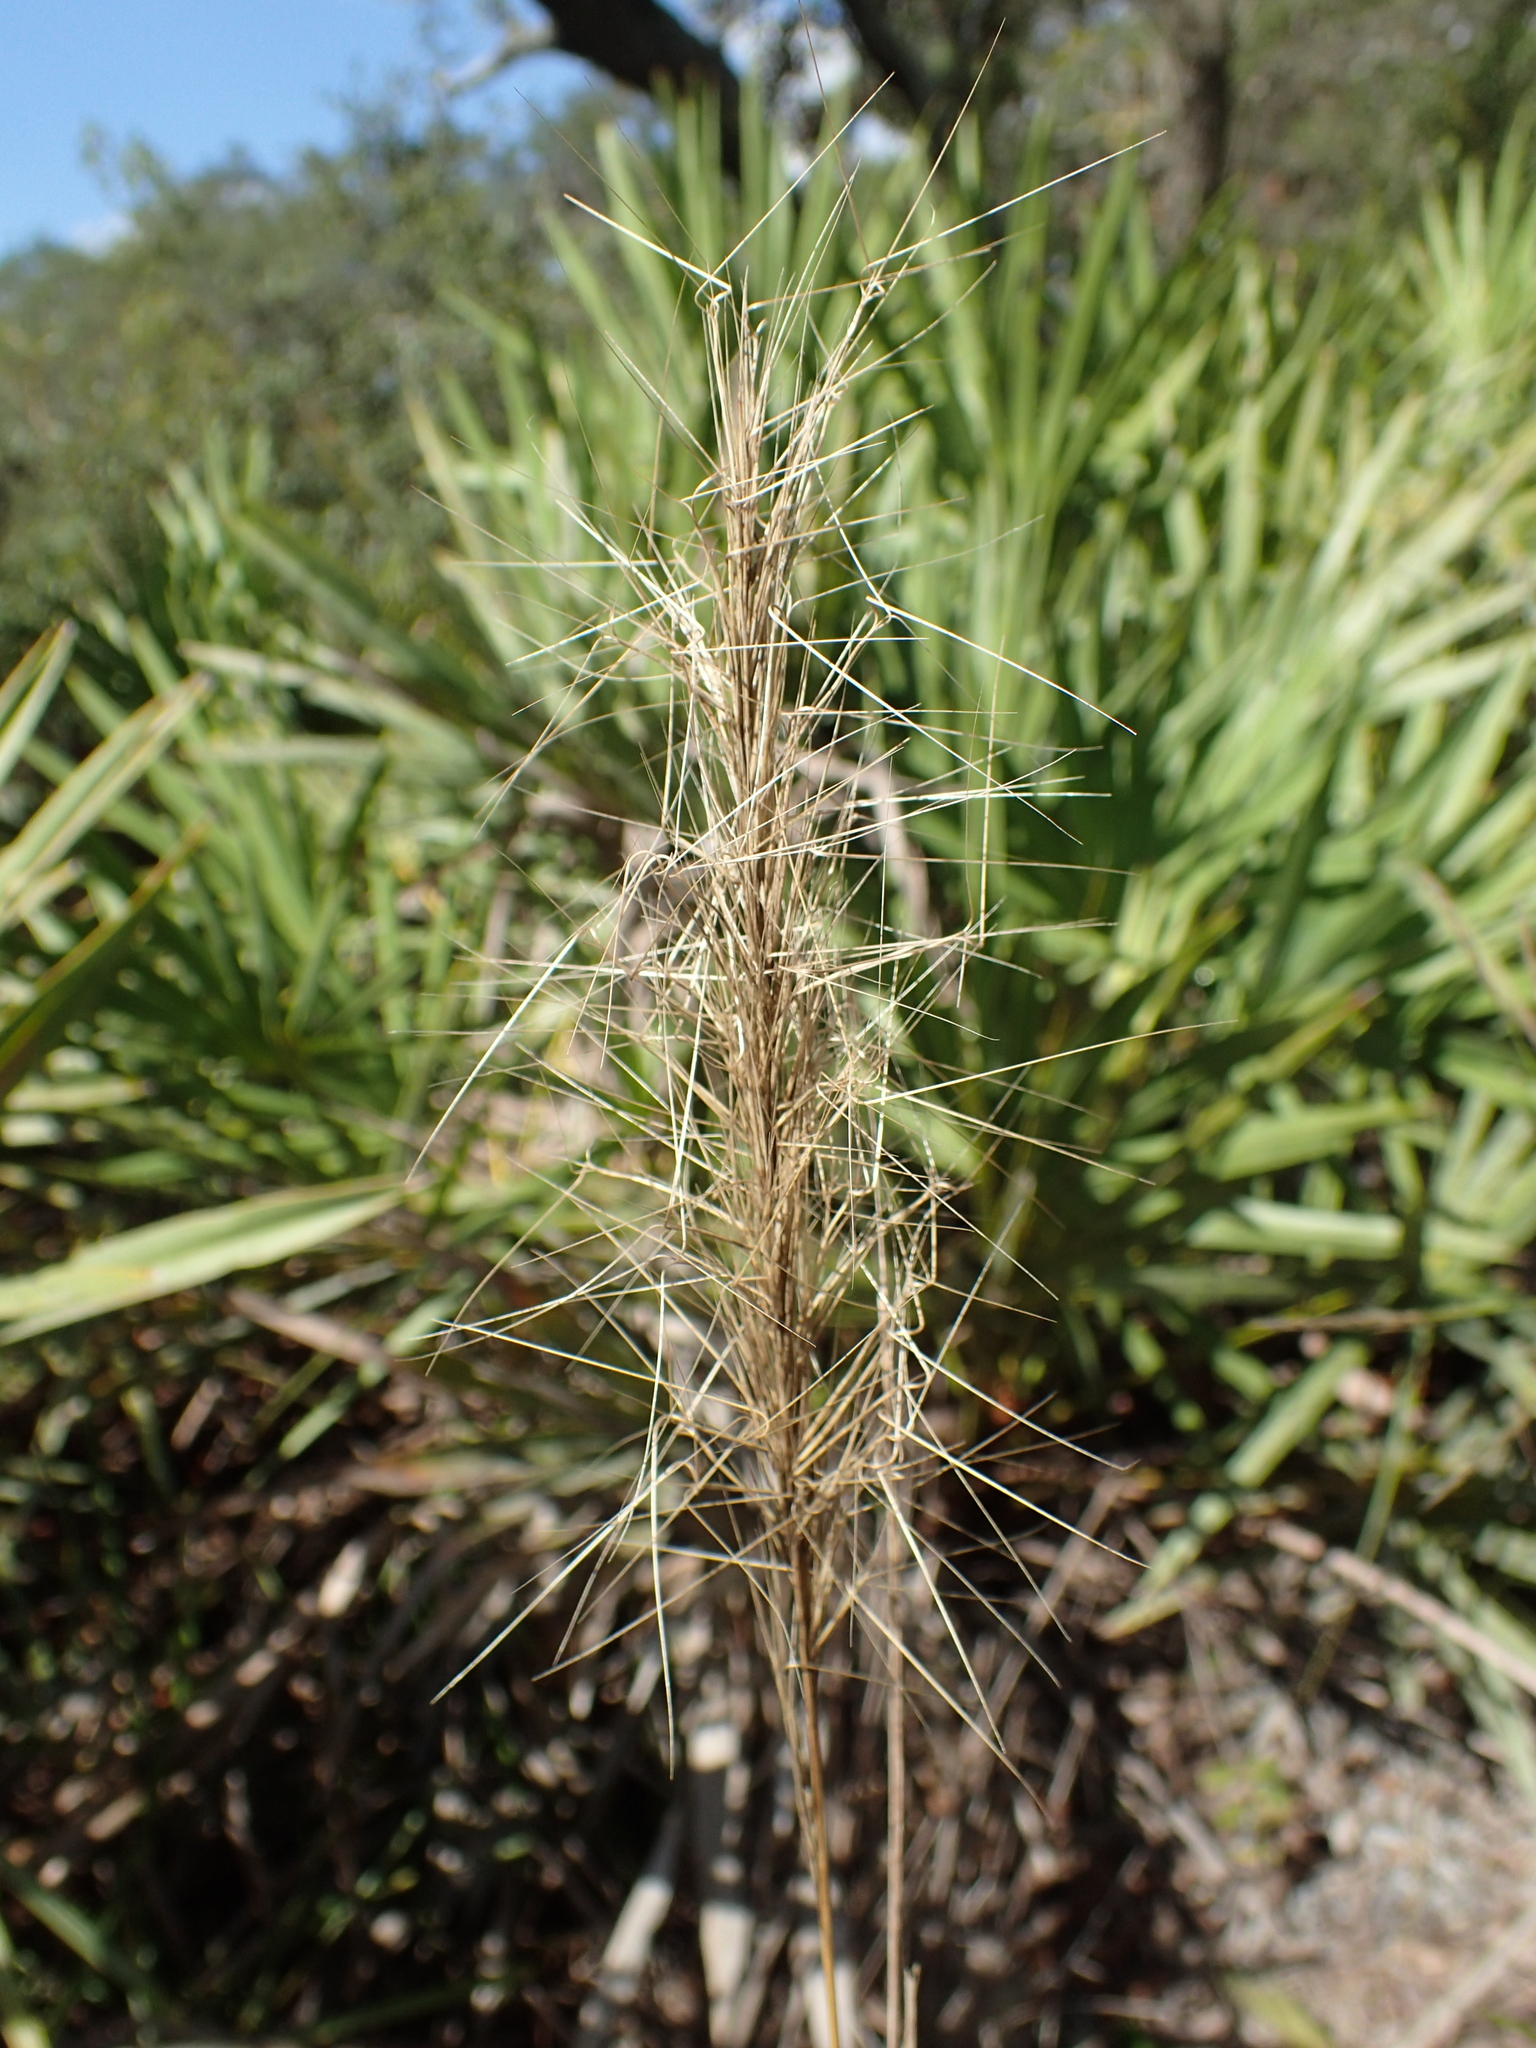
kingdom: Plantae
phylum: Tracheophyta
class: Liliopsida
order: Poales
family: Poaceae
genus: Aristida
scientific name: Aristida spiciformis
